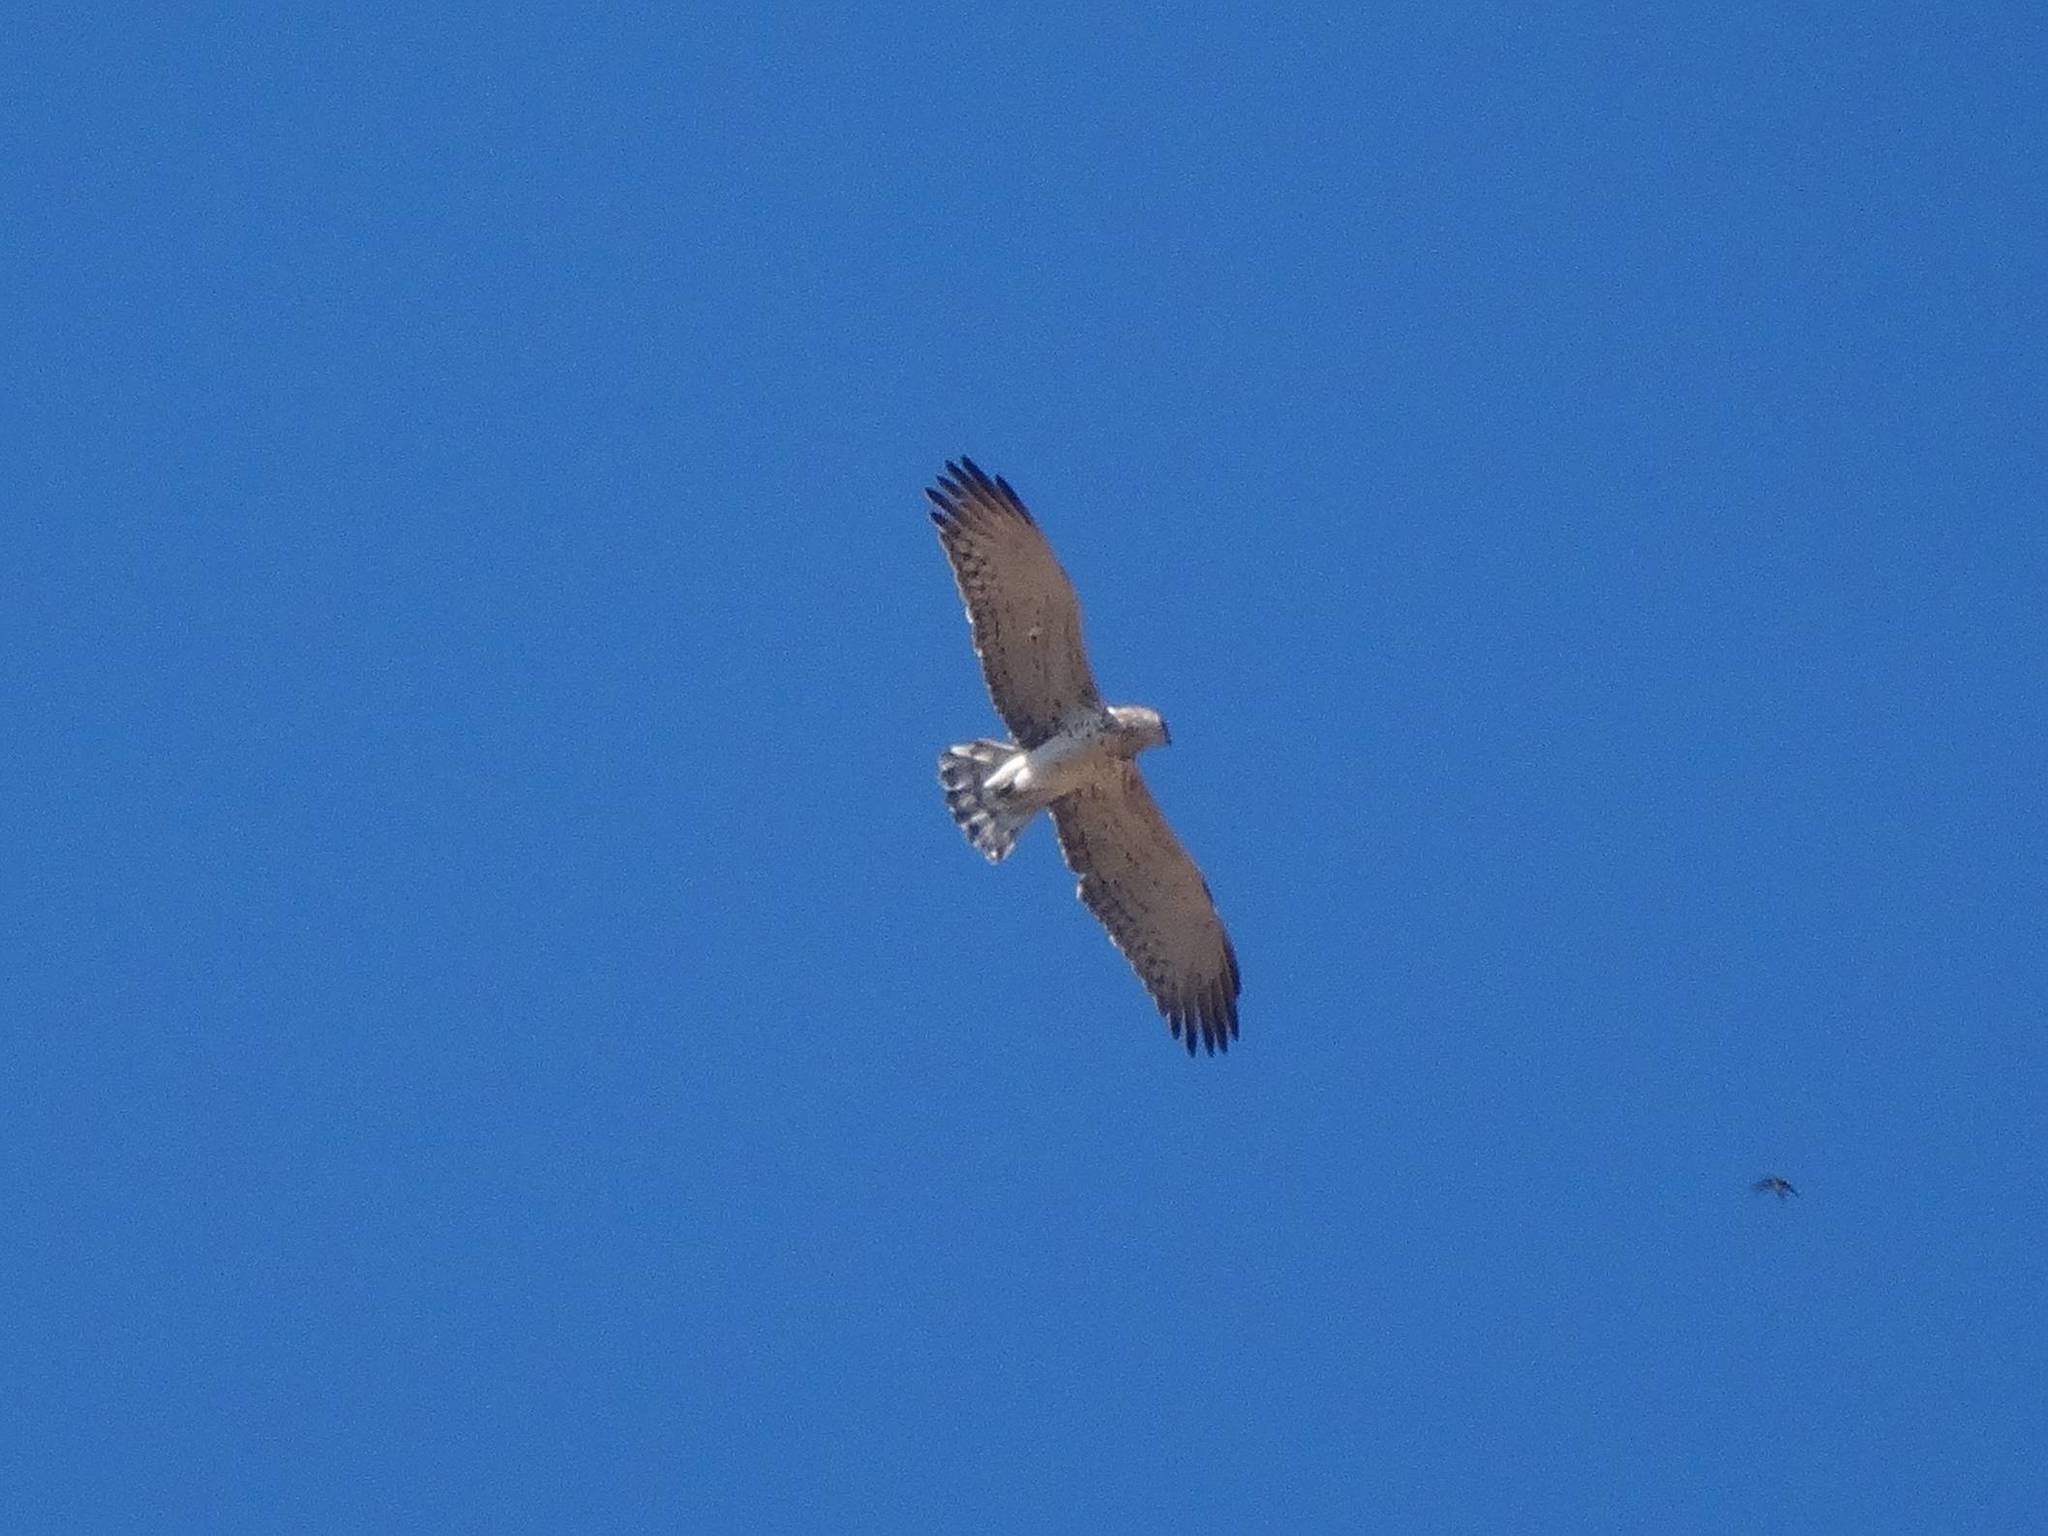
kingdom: Animalia
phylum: Chordata
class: Aves
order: Accipitriformes
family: Accipitridae
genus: Circaetus
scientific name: Circaetus gallicus
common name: Short-toed snake eagle
